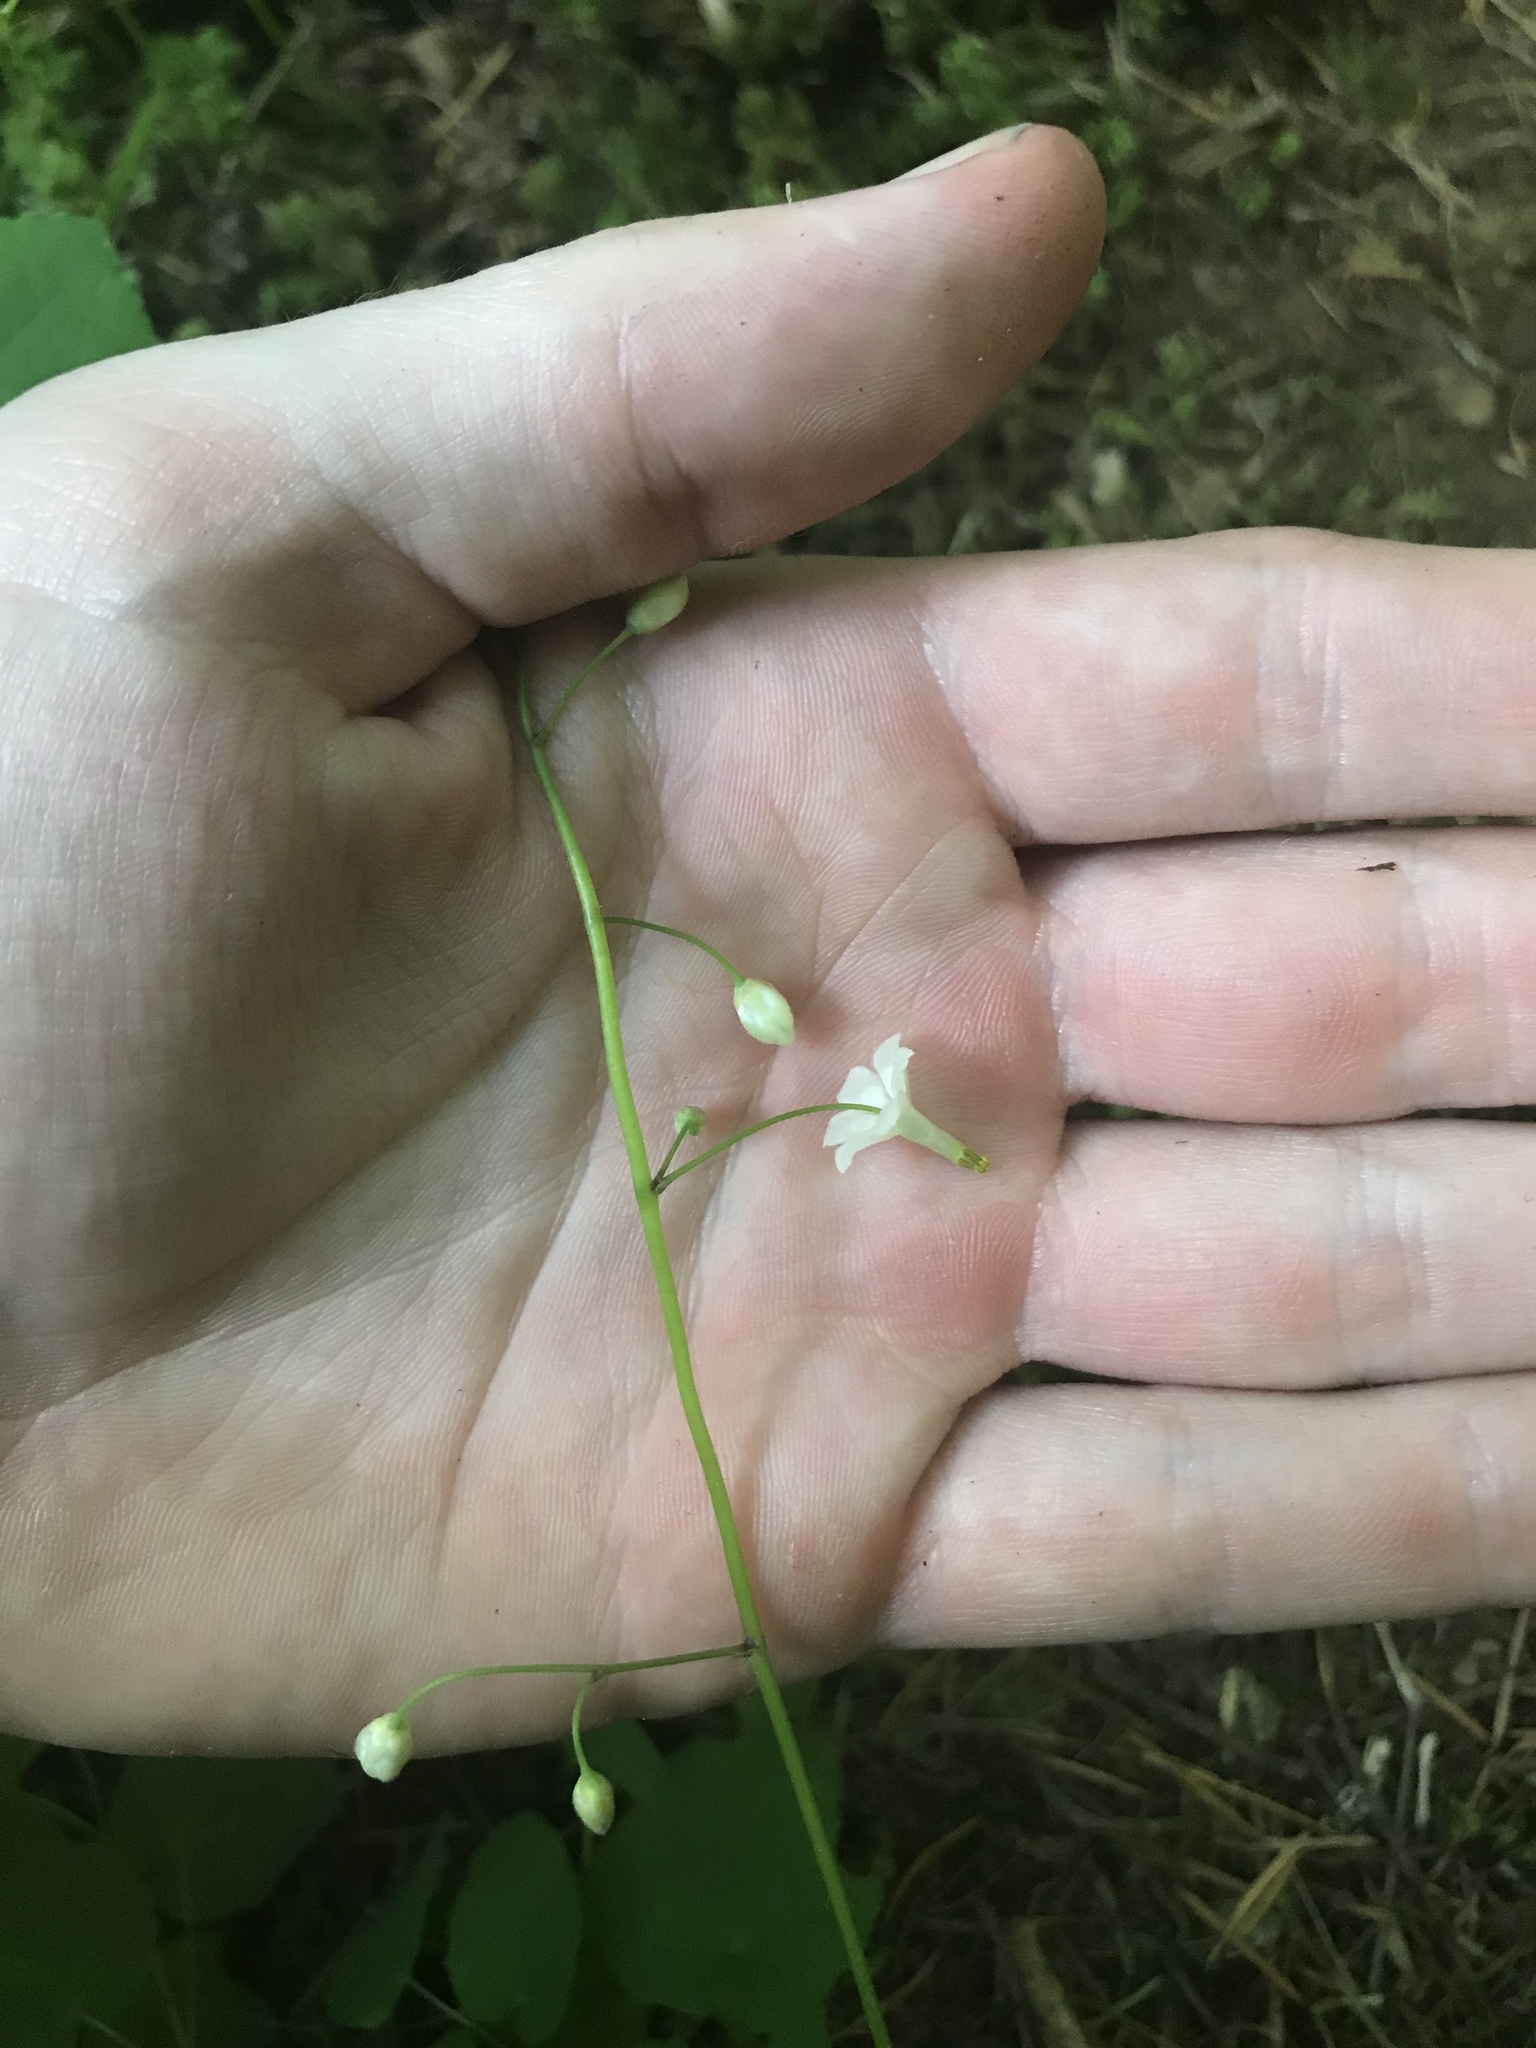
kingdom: Plantae
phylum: Tracheophyta
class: Magnoliopsida
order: Ranunculales
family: Berberidaceae
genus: Vancouveria
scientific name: Vancouveria hexandra
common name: Northern inside-out-flower
